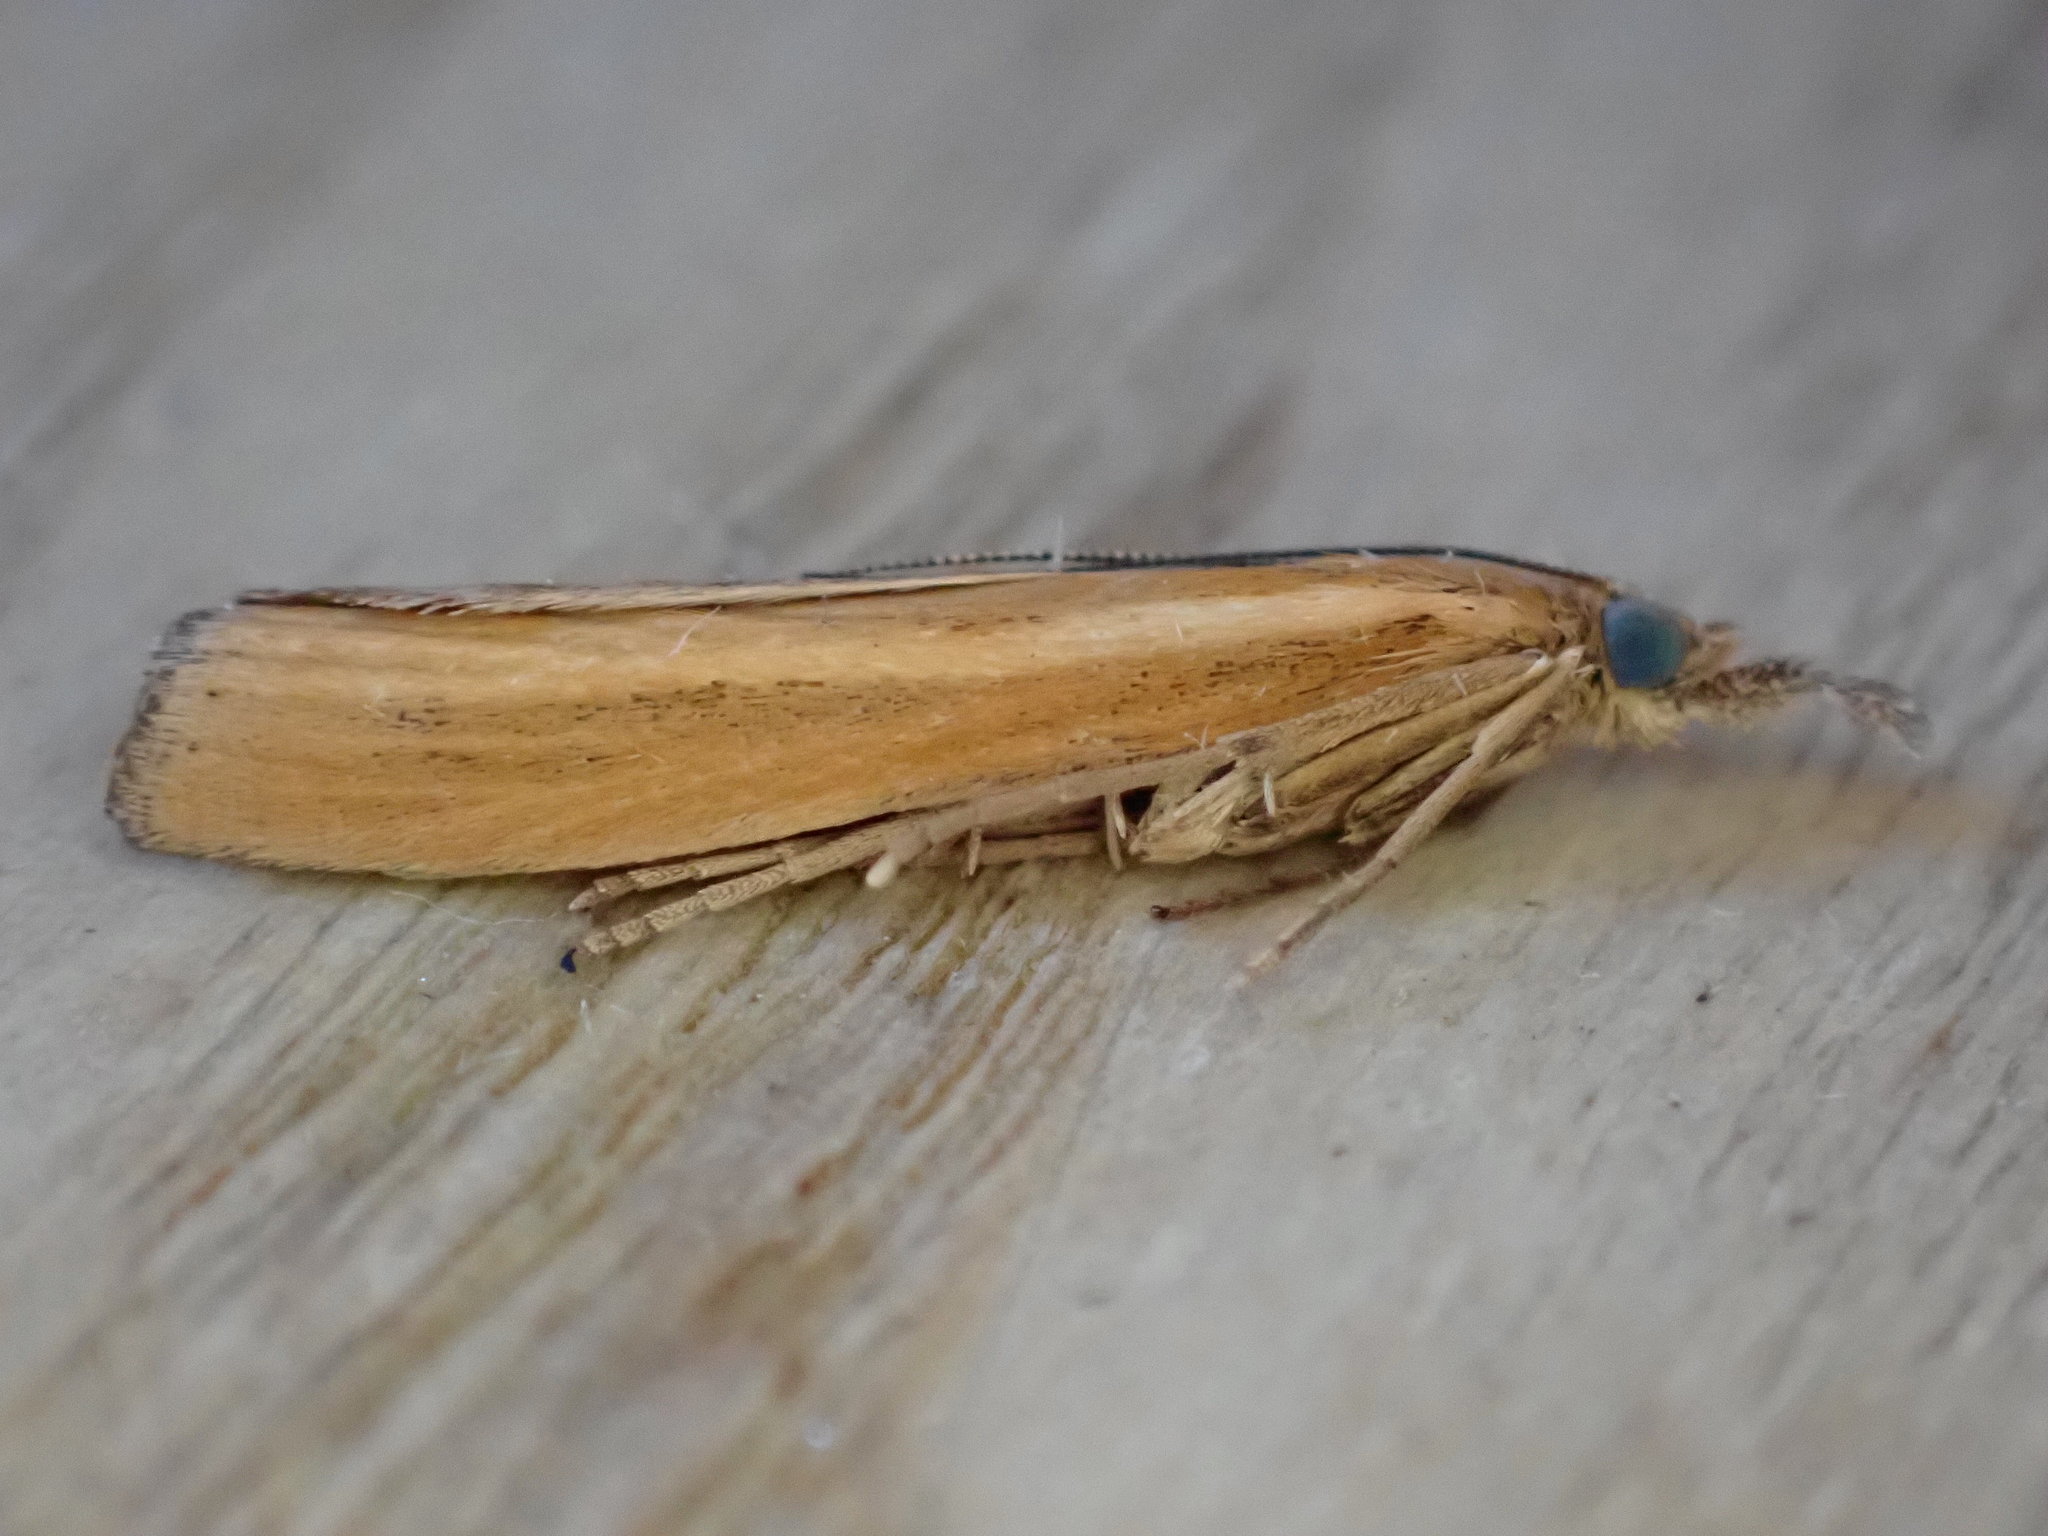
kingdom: Animalia
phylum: Arthropoda
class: Insecta
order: Lepidoptera
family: Crambidae
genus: Agriphila
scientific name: Agriphila tristellus
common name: Common grass-veneer
